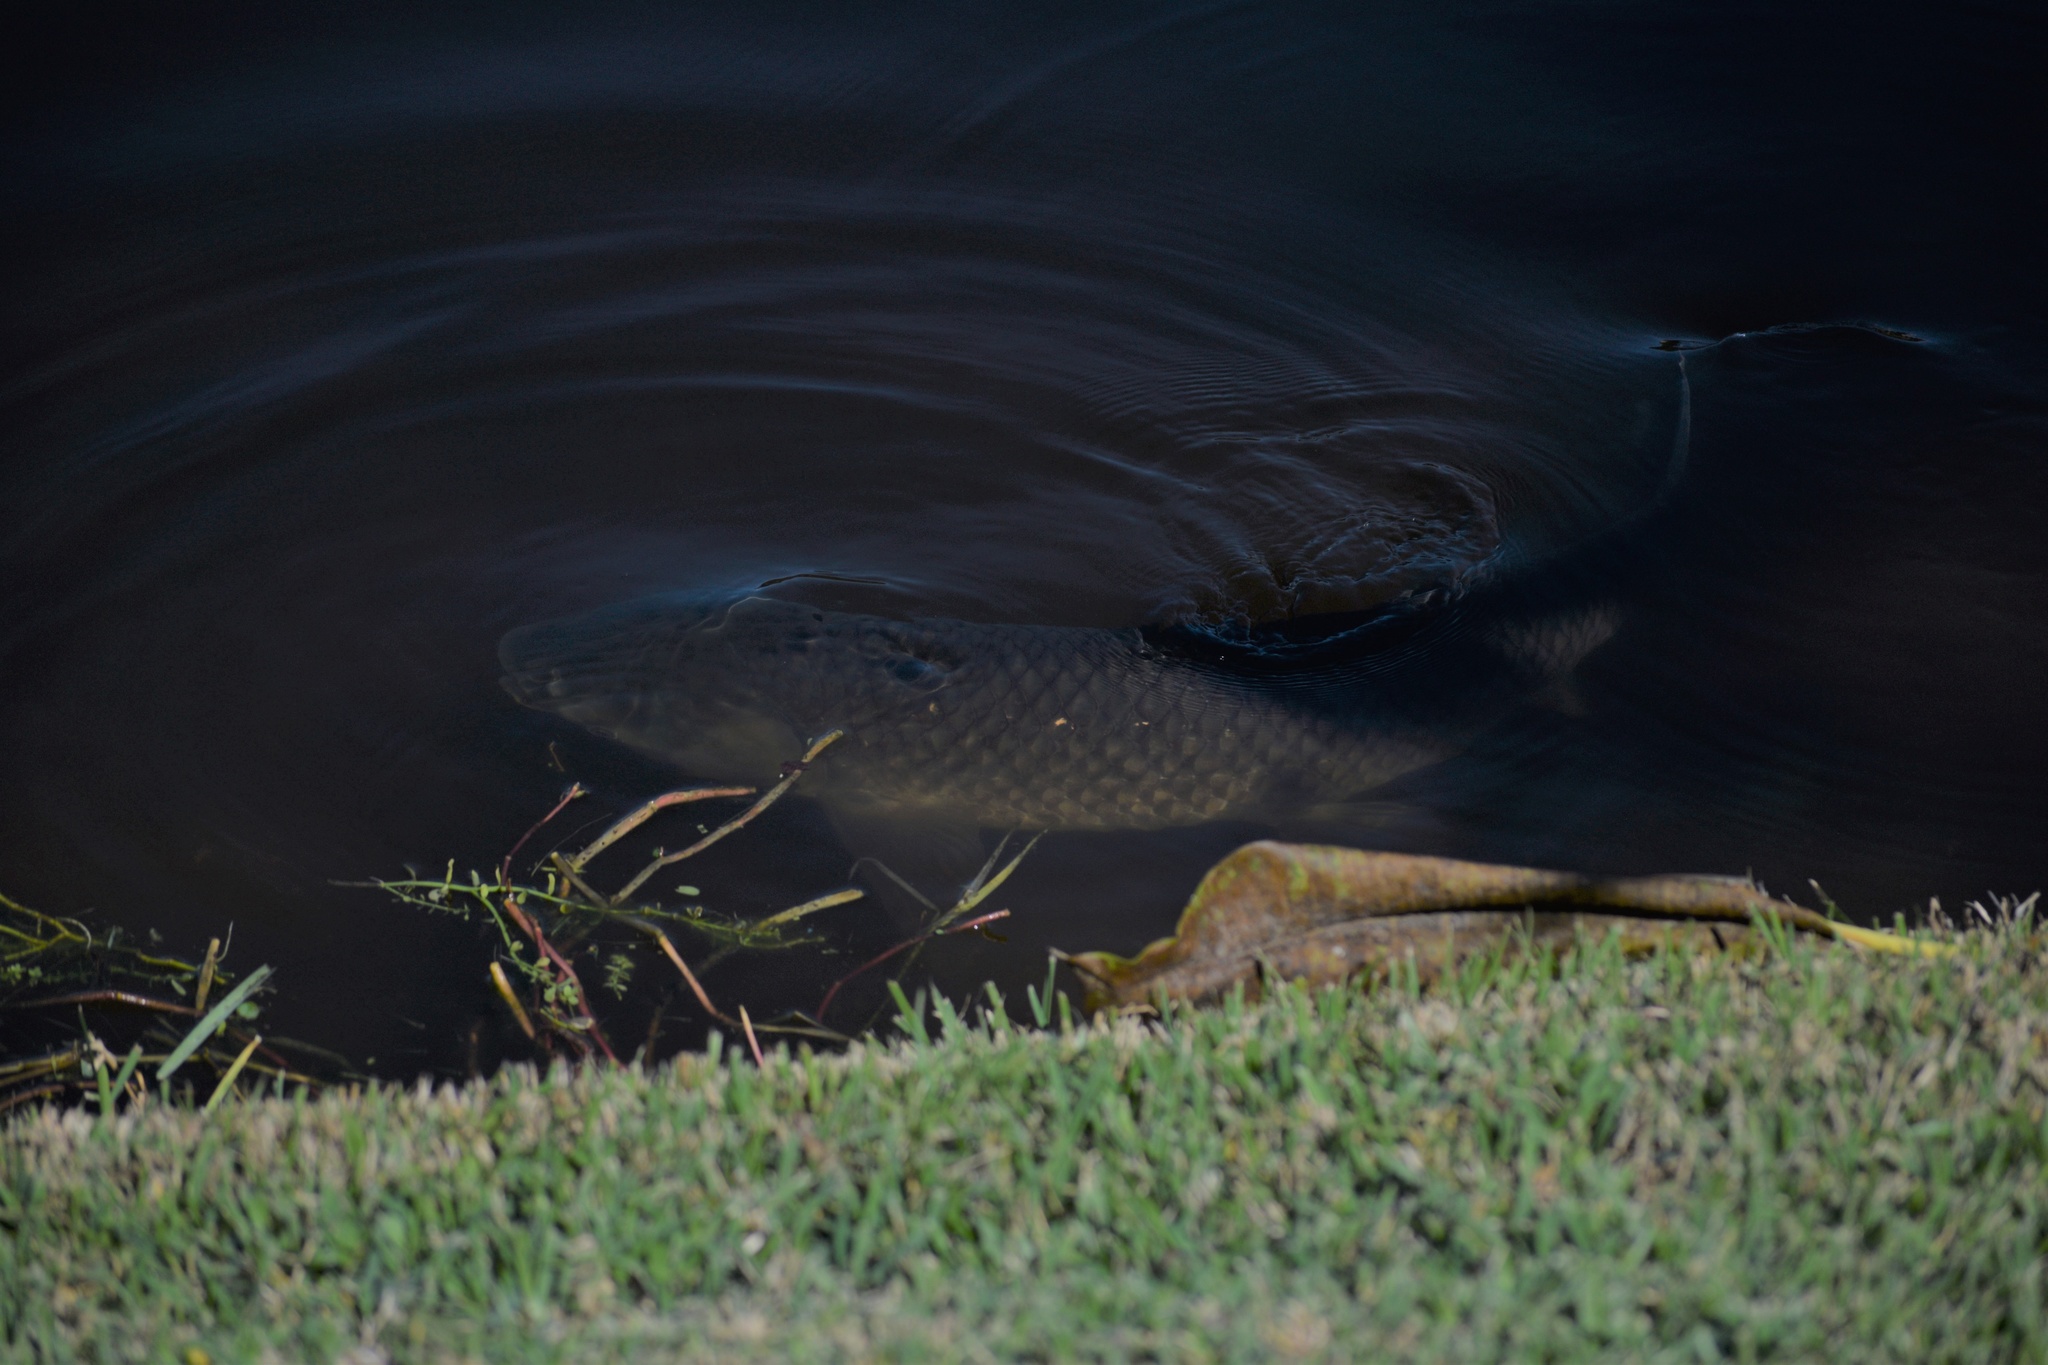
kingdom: Animalia
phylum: Chordata
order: Cypriniformes
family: Cyprinidae
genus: Ctenopharyngodon
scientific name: Ctenopharyngodon idella
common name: Grass carp
